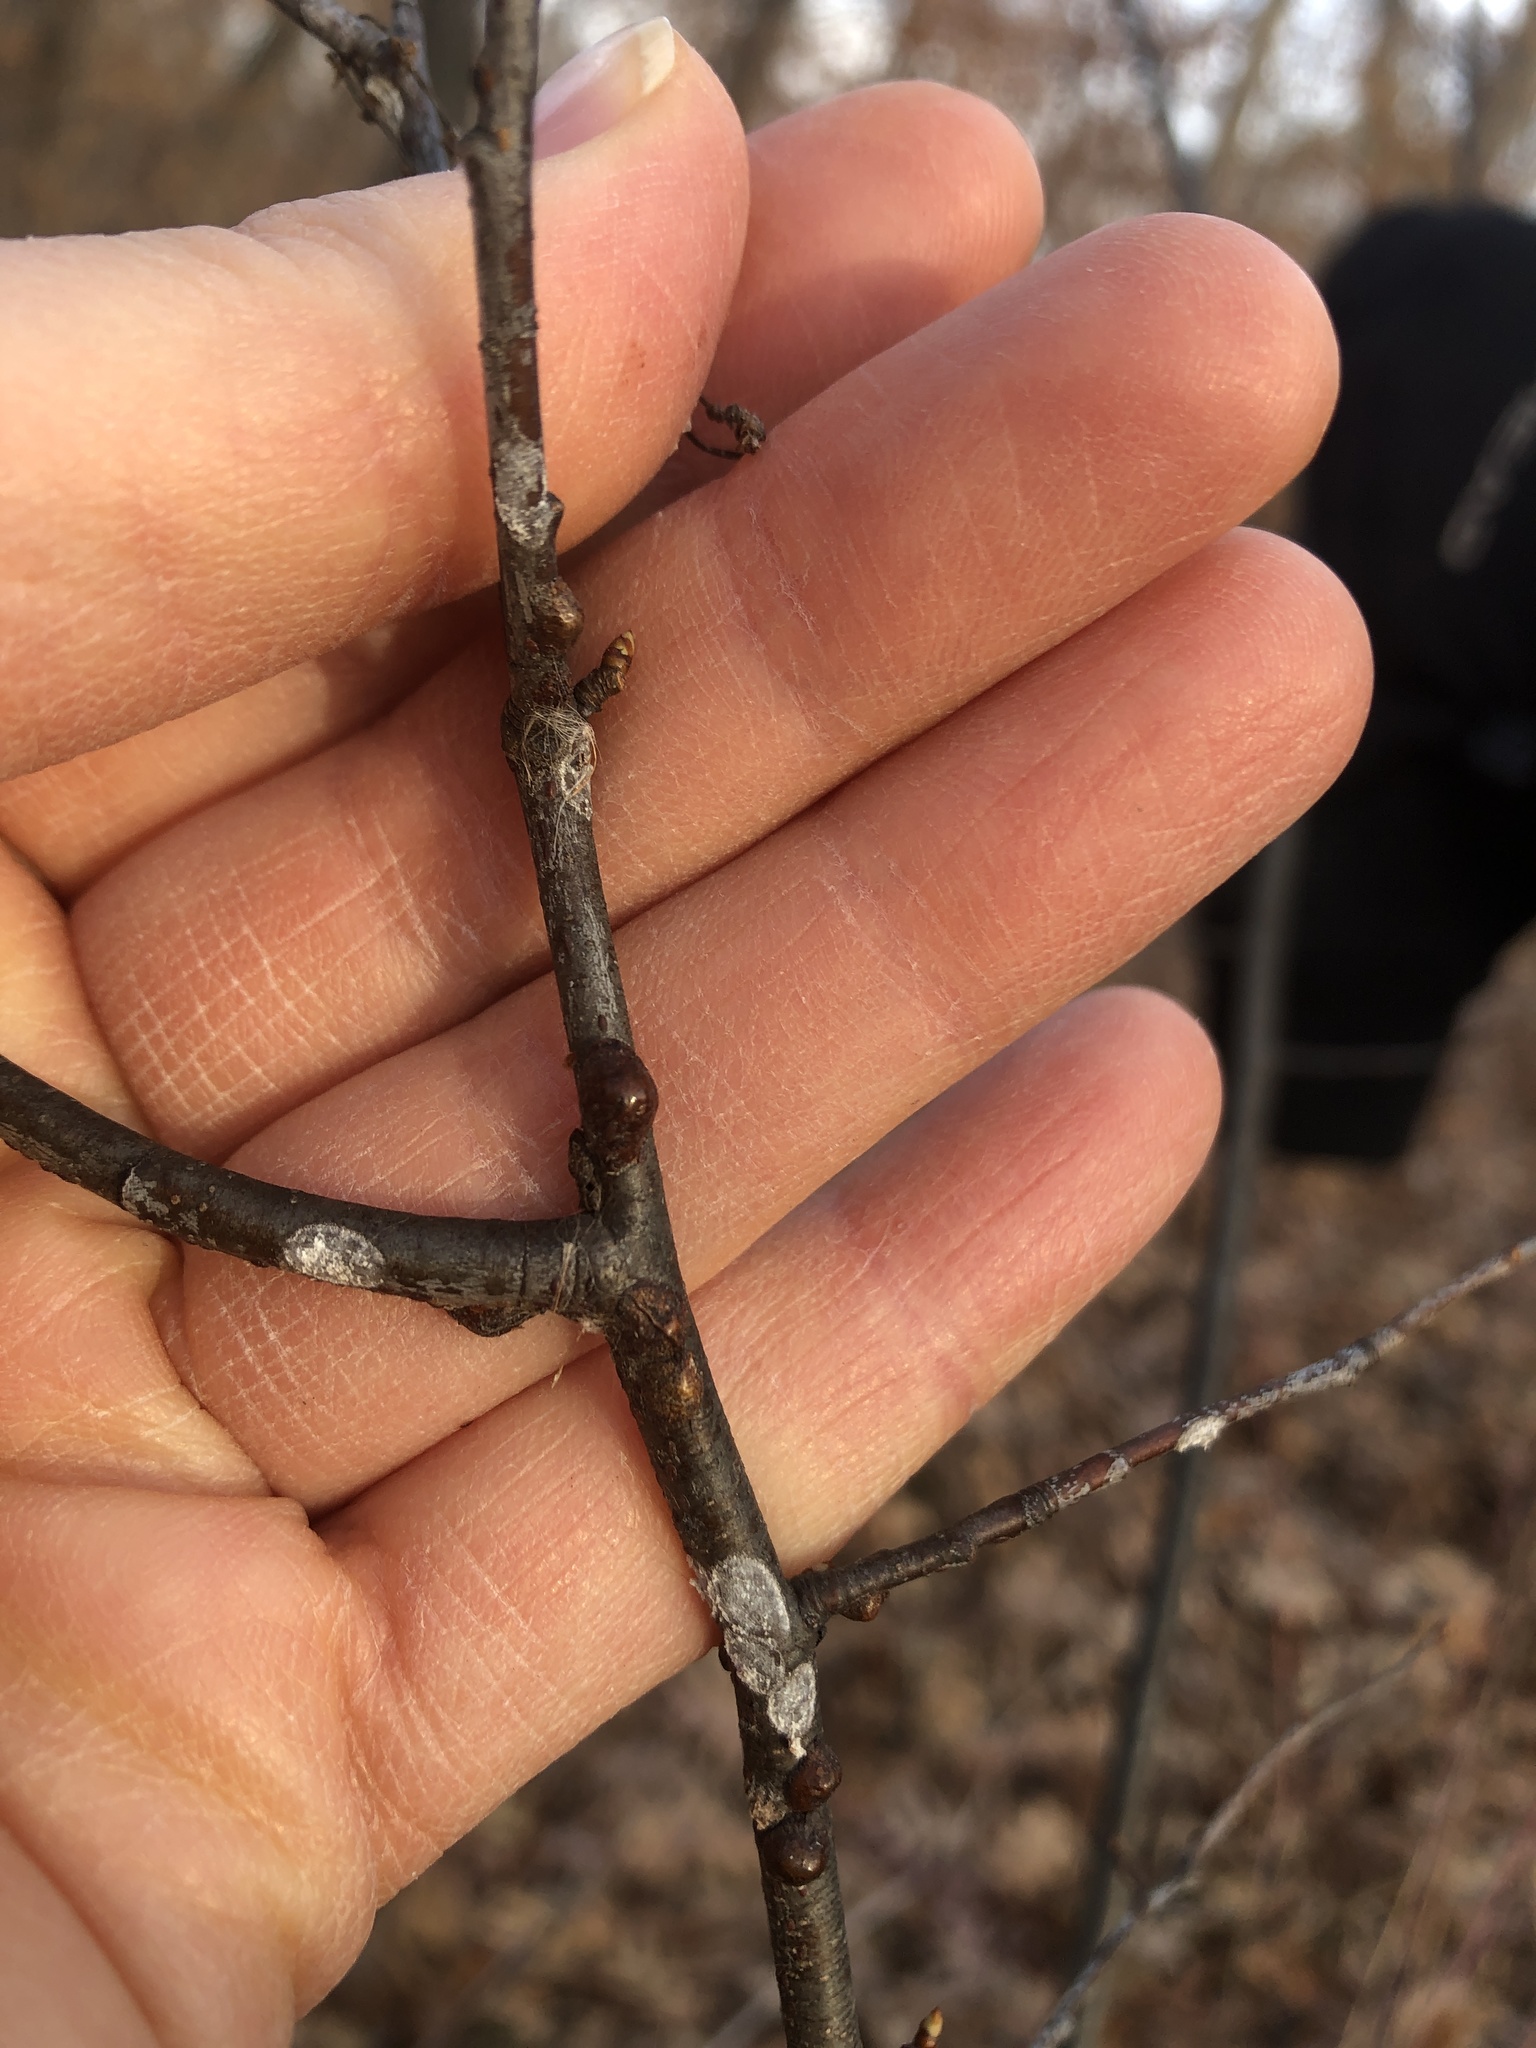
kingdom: Fungi
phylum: Ascomycota
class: Lecanoromycetes
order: Caliciales
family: Physciaceae
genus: Physcia
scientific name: Physcia stellaris
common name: Star rosette lichen
